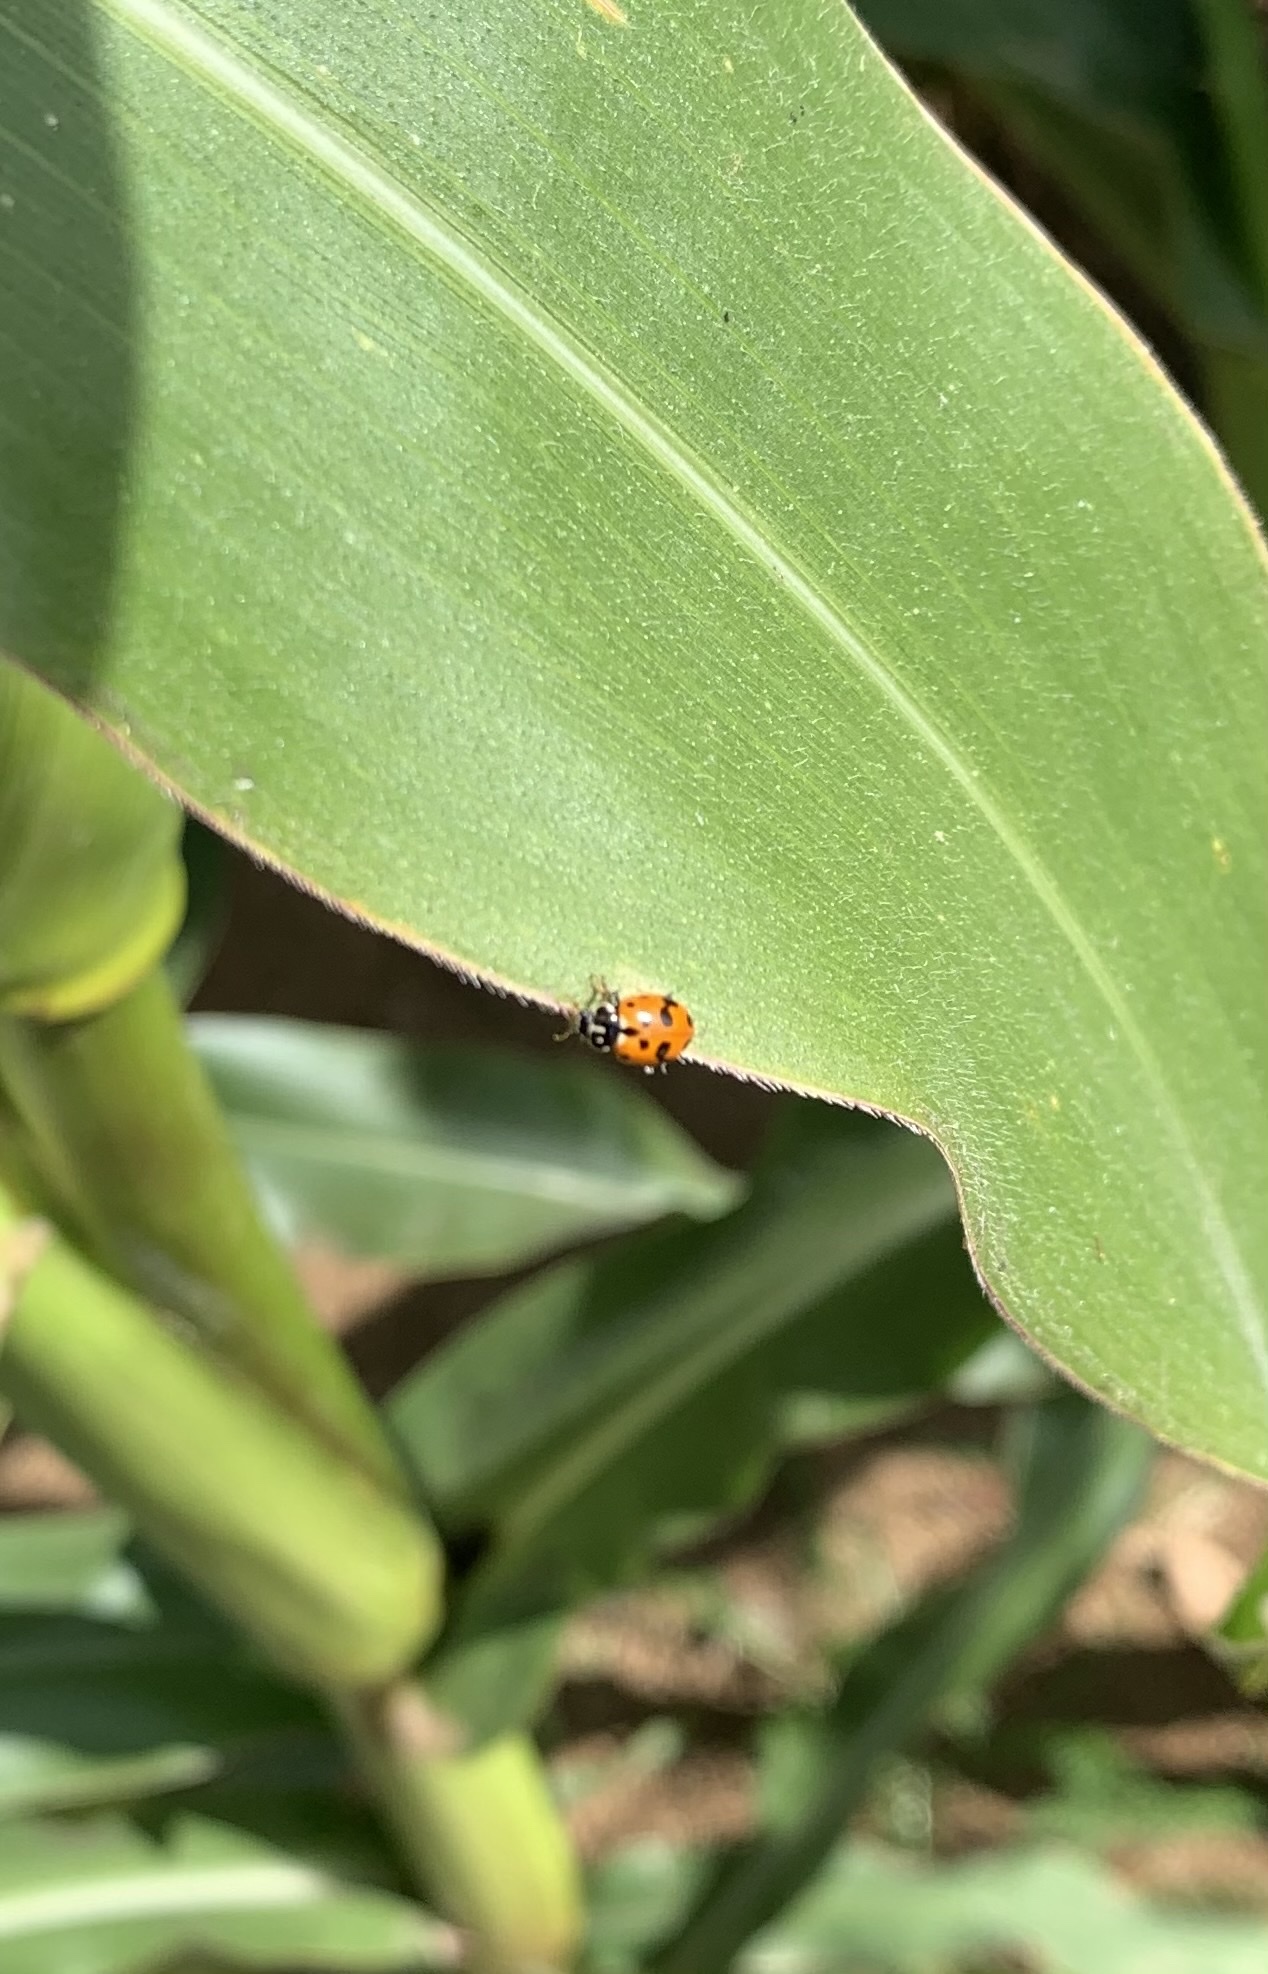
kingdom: Animalia
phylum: Arthropoda
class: Insecta
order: Coleoptera
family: Coccinellidae
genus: Hippodamia
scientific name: Hippodamia variegata
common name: Ladybird beetle
